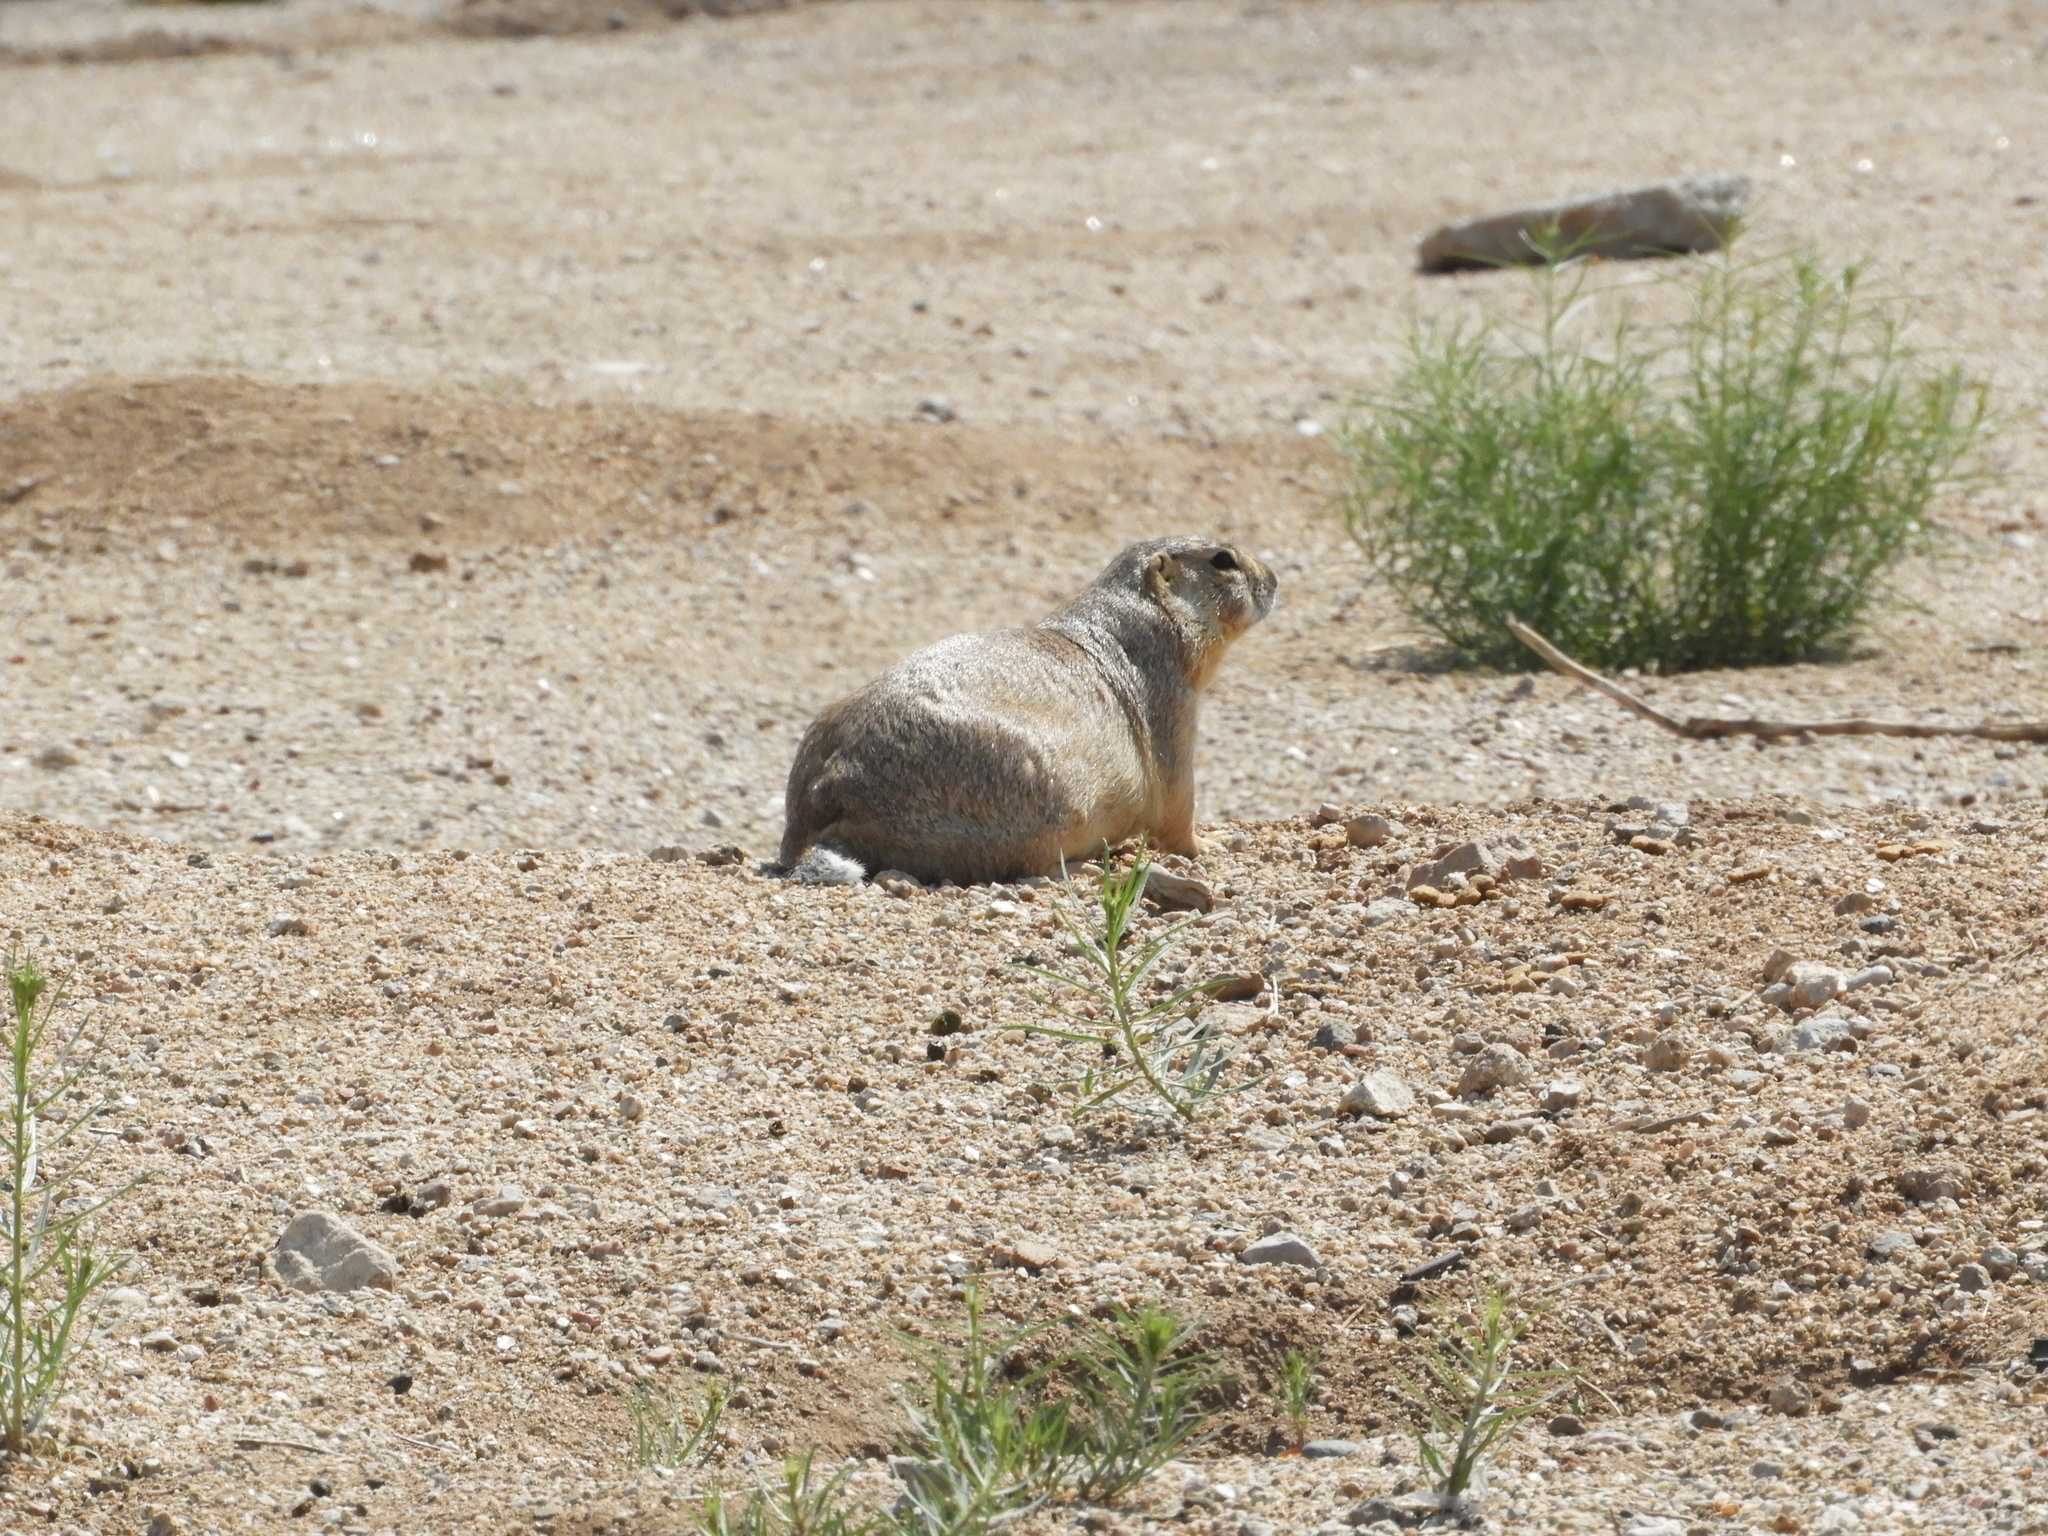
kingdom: Animalia
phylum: Chordata
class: Mammalia
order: Rodentia
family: Sciuridae
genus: Cynomys
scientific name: Cynomys gunnisoni
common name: Gunnison's prairie dog
